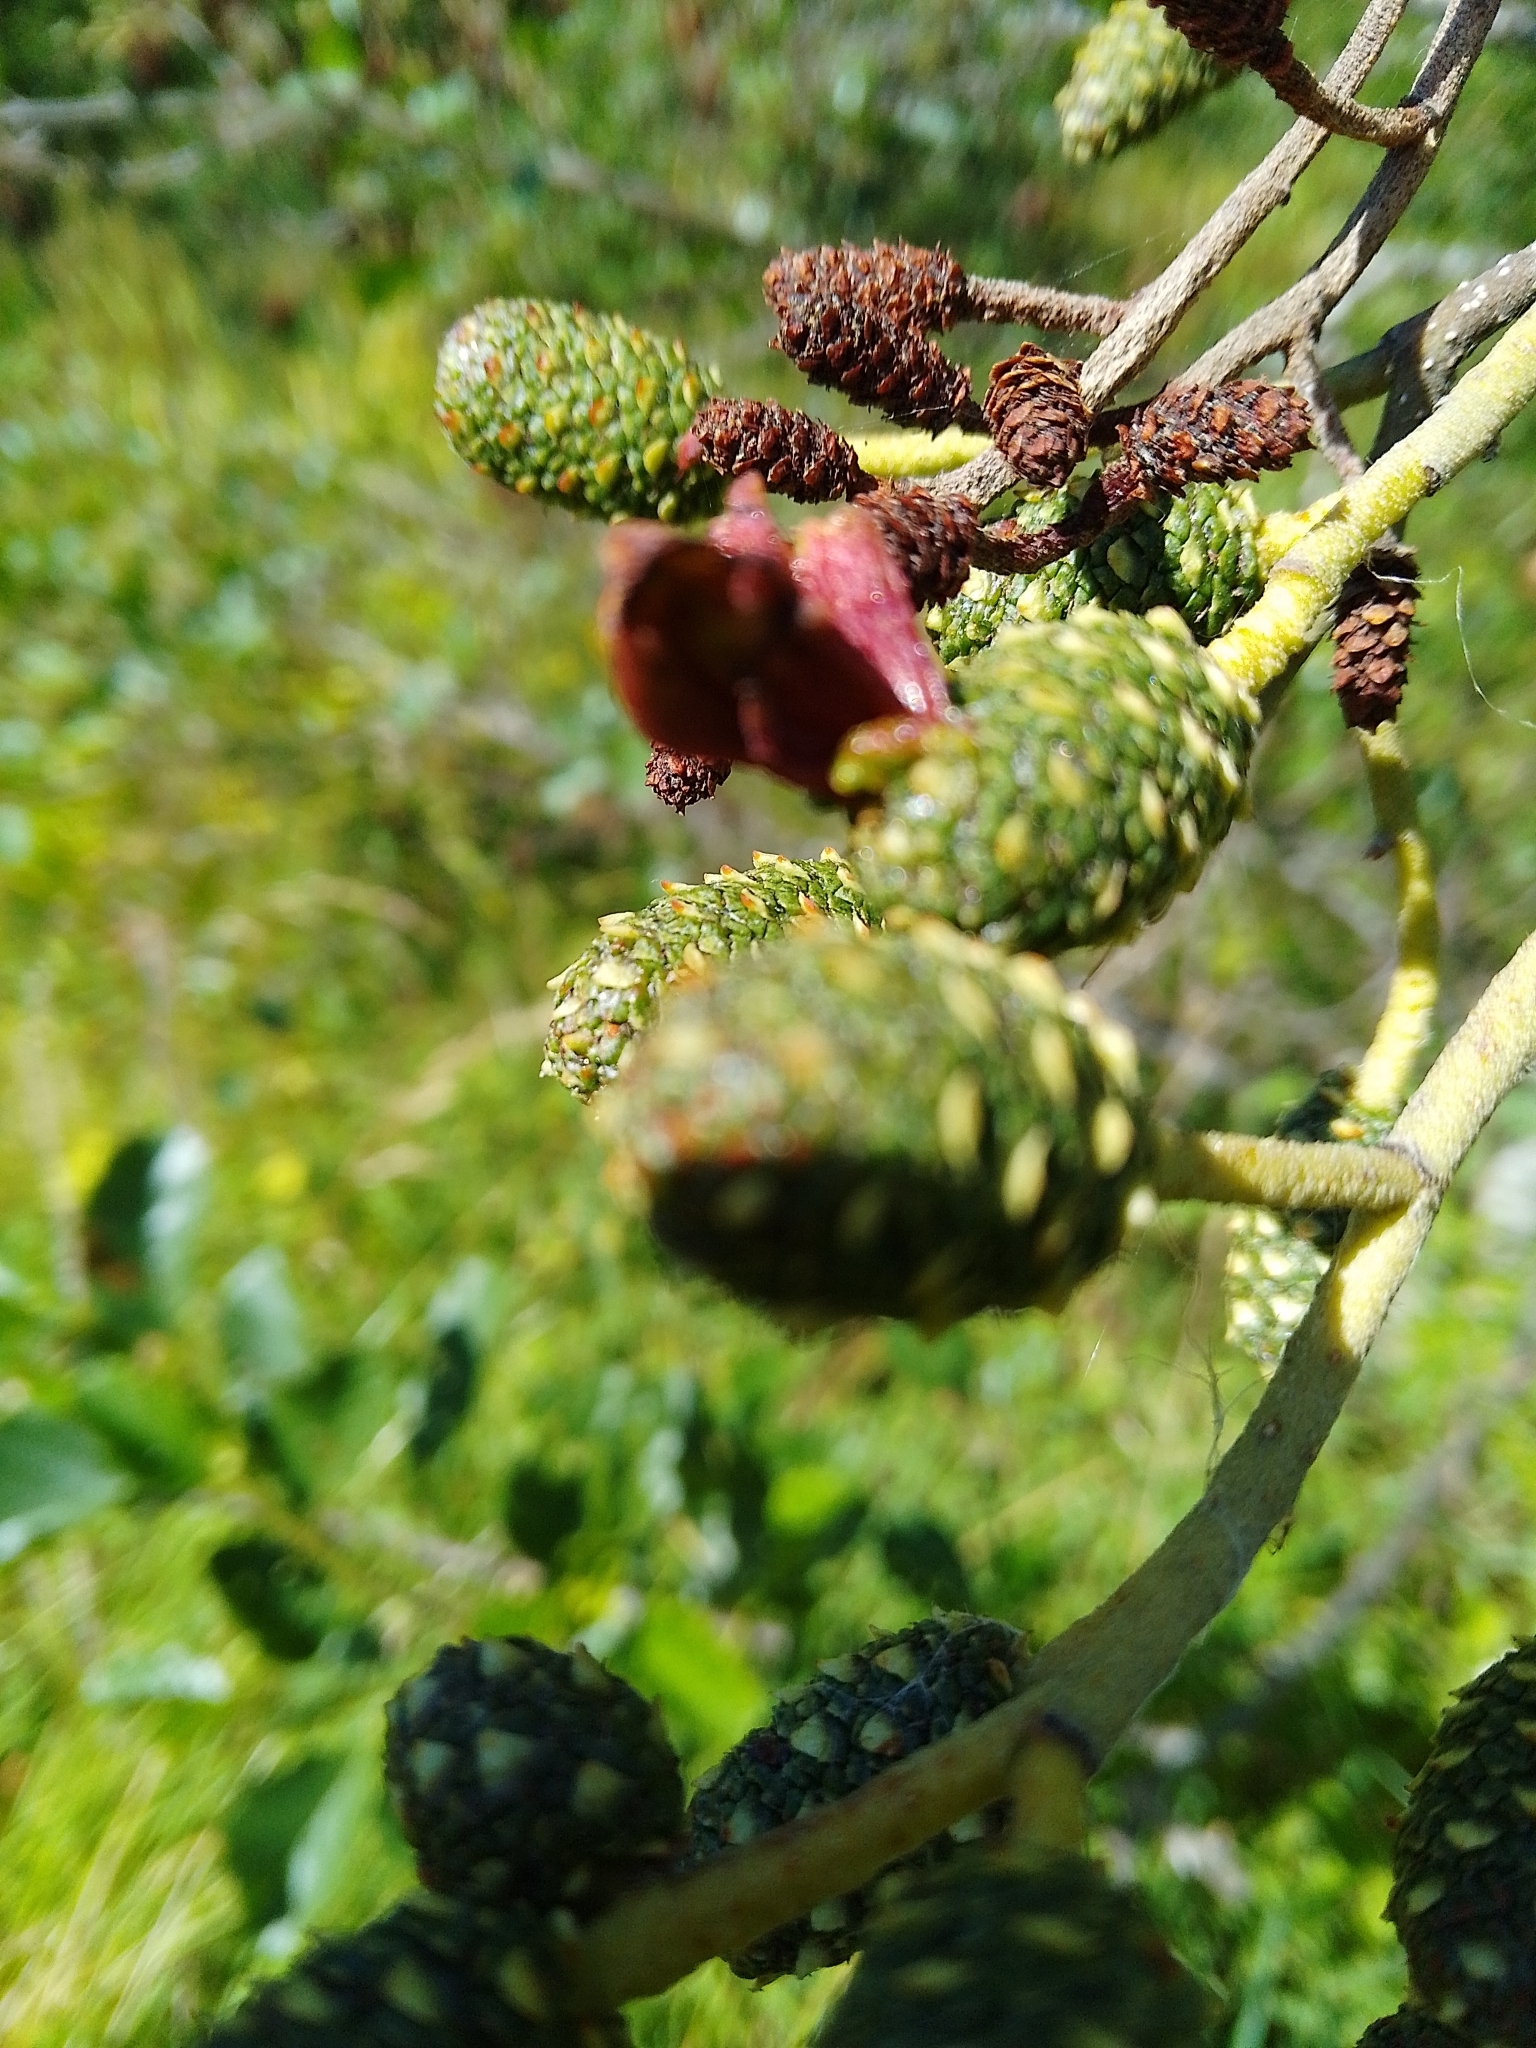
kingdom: Fungi
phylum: Ascomycota
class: Taphrinomycetes
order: Taphrinales
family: Taphrinaceae
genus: Taphrina
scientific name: Taphrina alni
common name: Alder tongue
